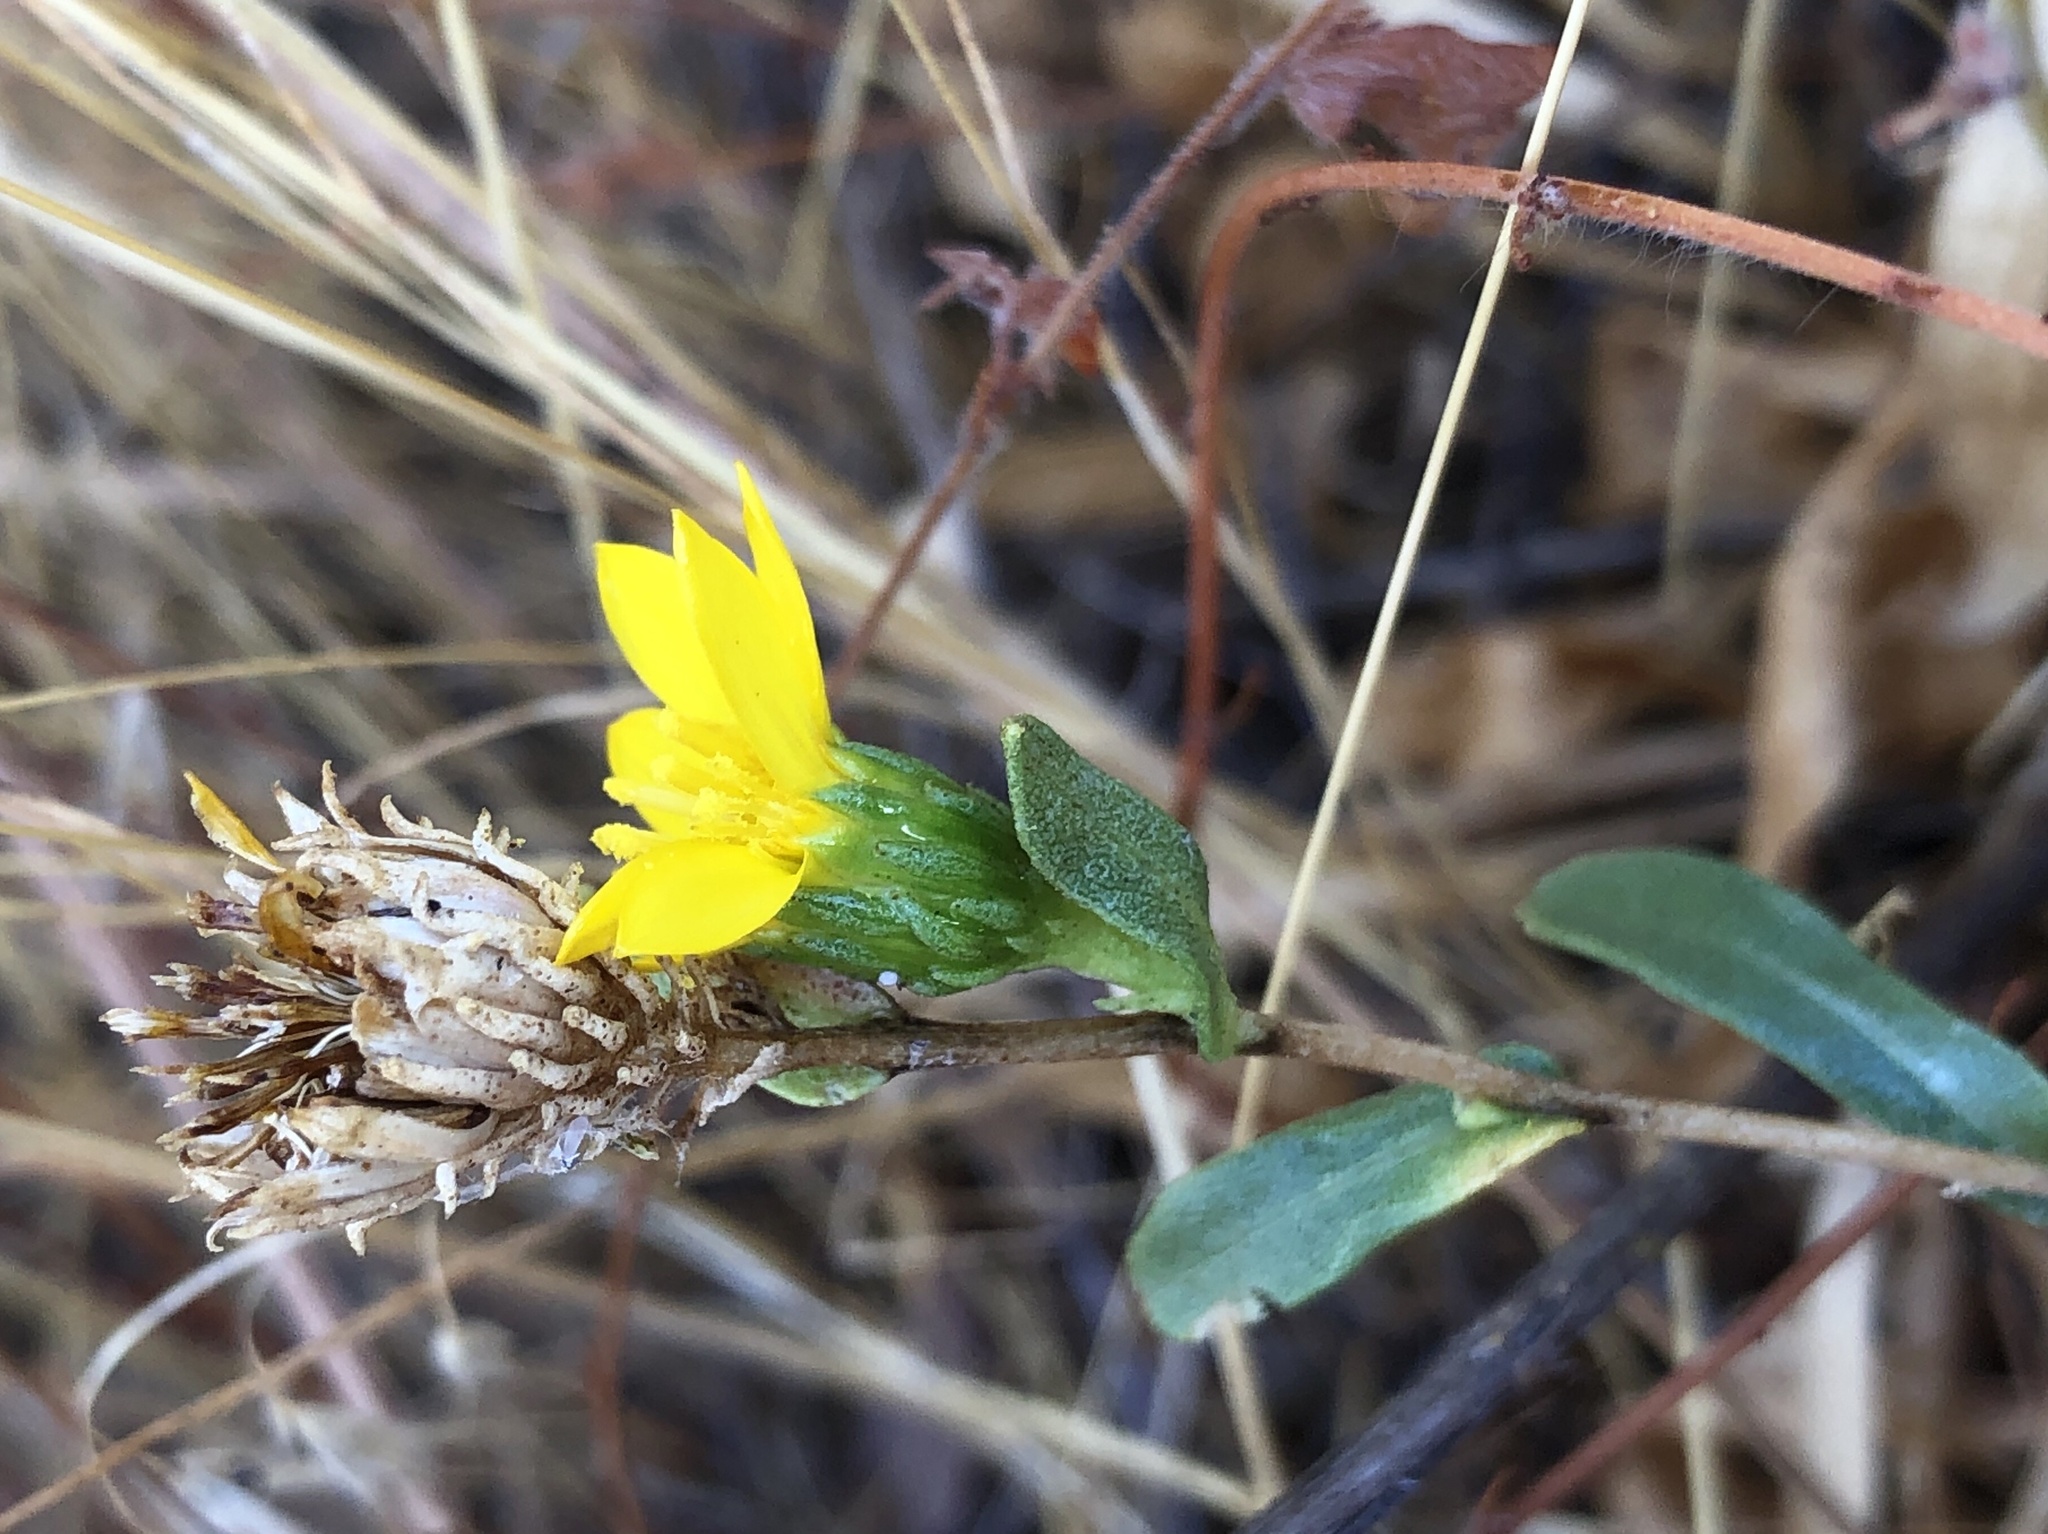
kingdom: Plantae
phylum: Tracheophyta
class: Magnoliopsida
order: Asterales
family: Asteraceae
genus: Grindelia
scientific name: Grindelia hirsutula
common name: Hairy gumweed
